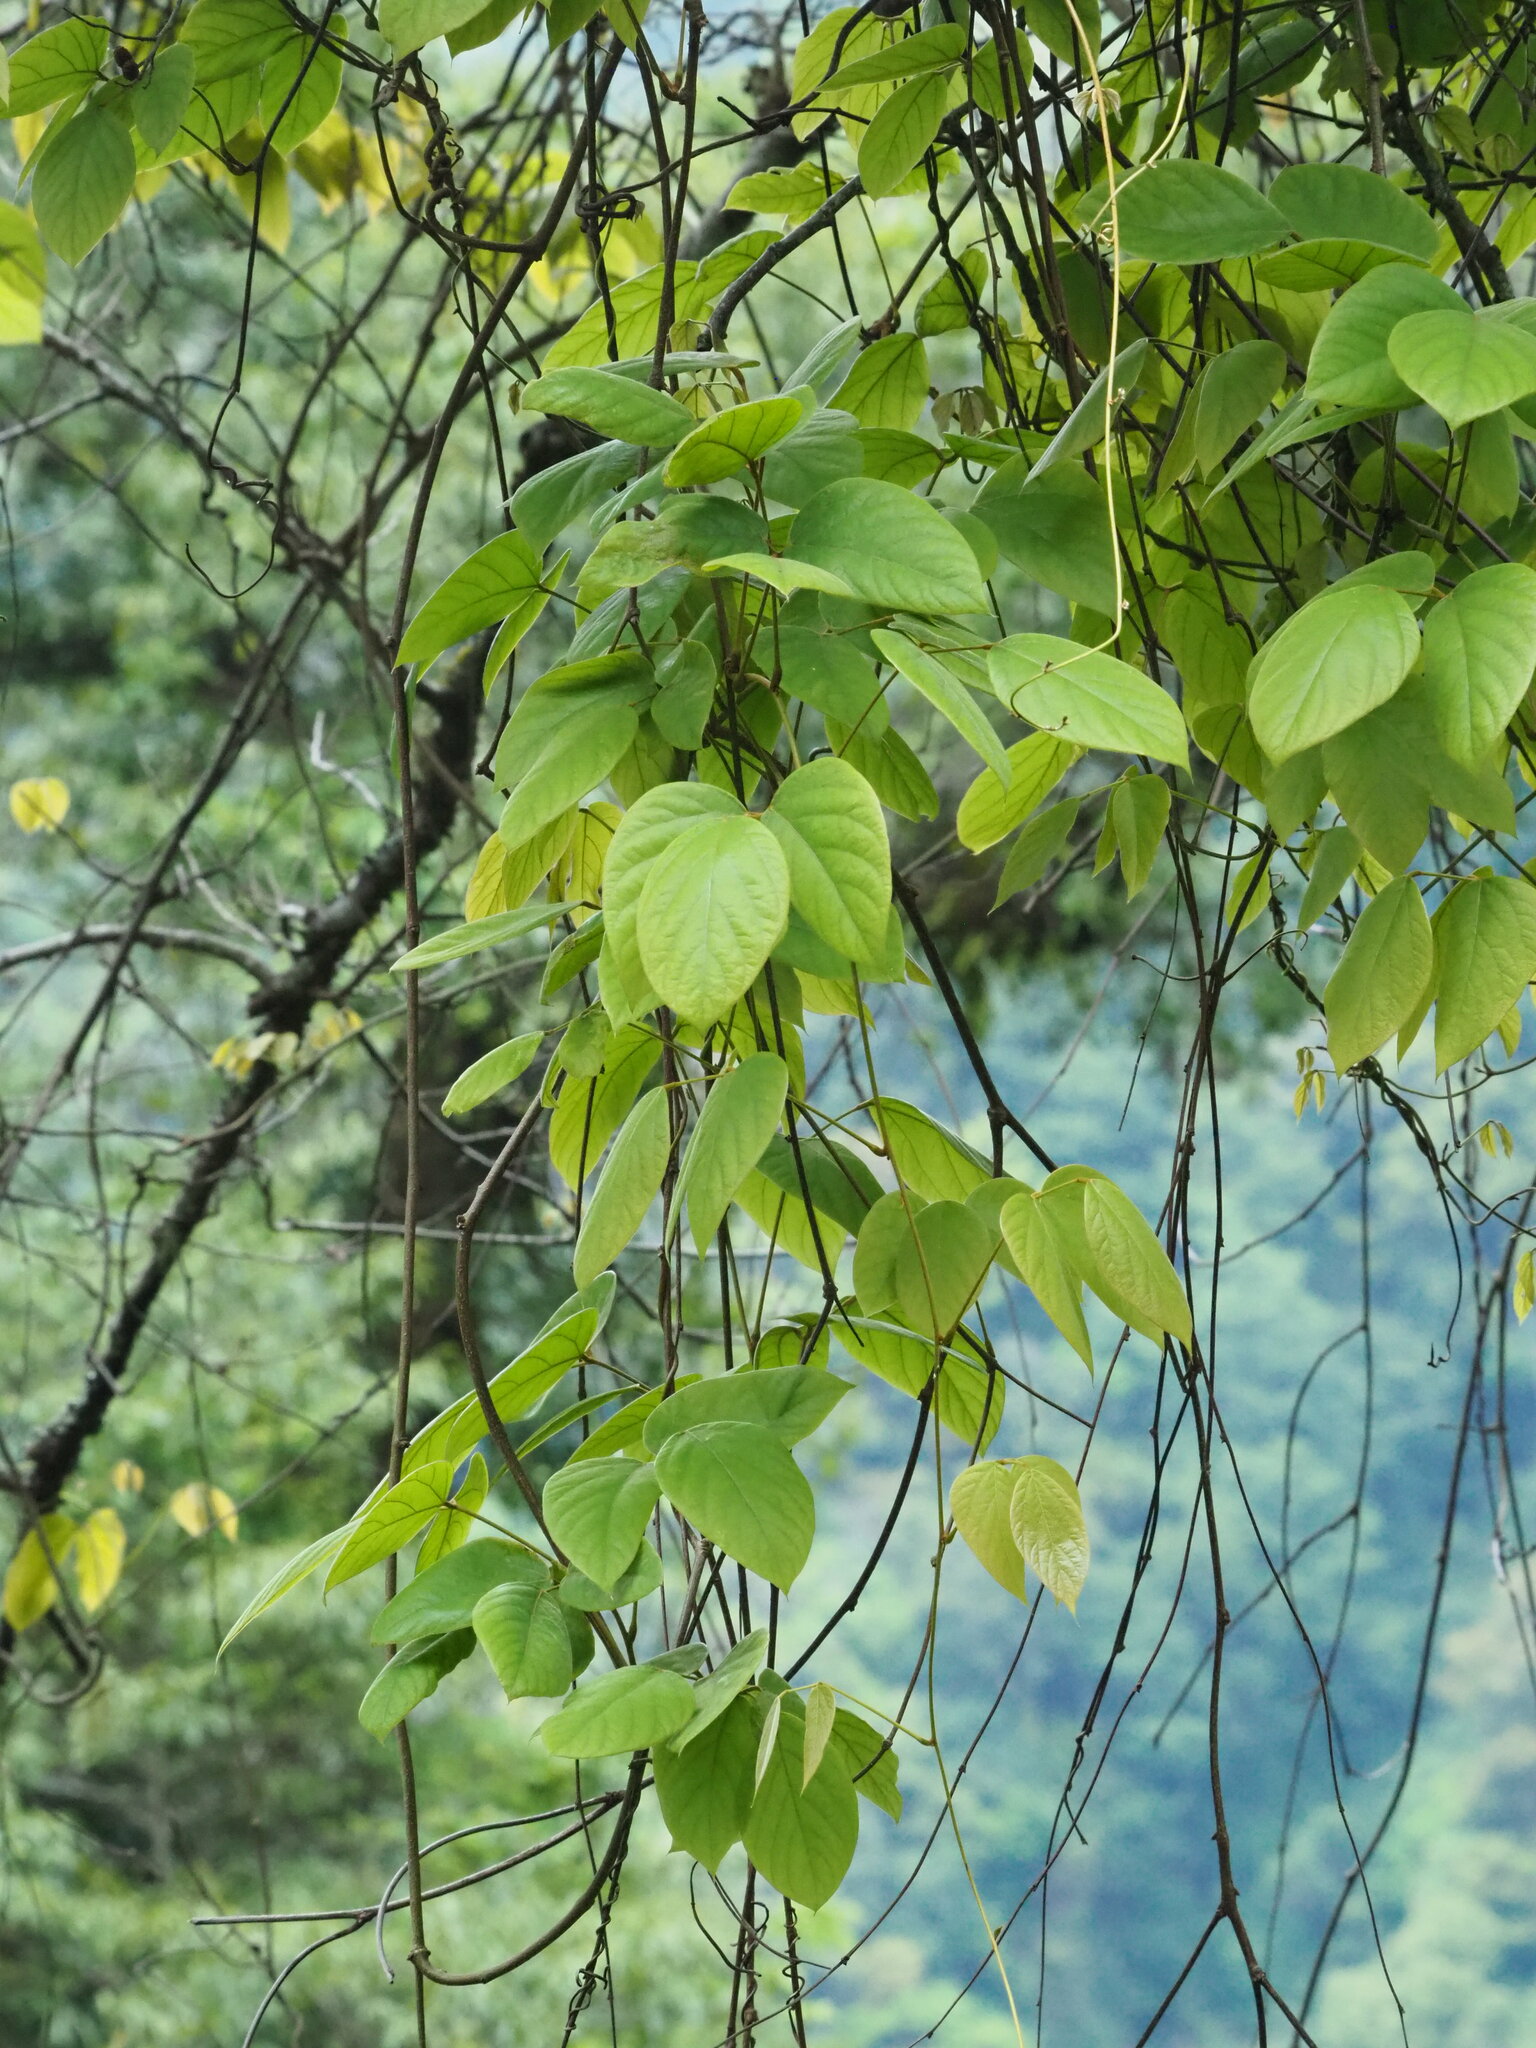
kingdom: Plantae
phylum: Tracheophyta
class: Magnoliopsida
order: Fabales
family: Fabaceae
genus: Mucuna
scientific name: Mucuna macrocarpa
